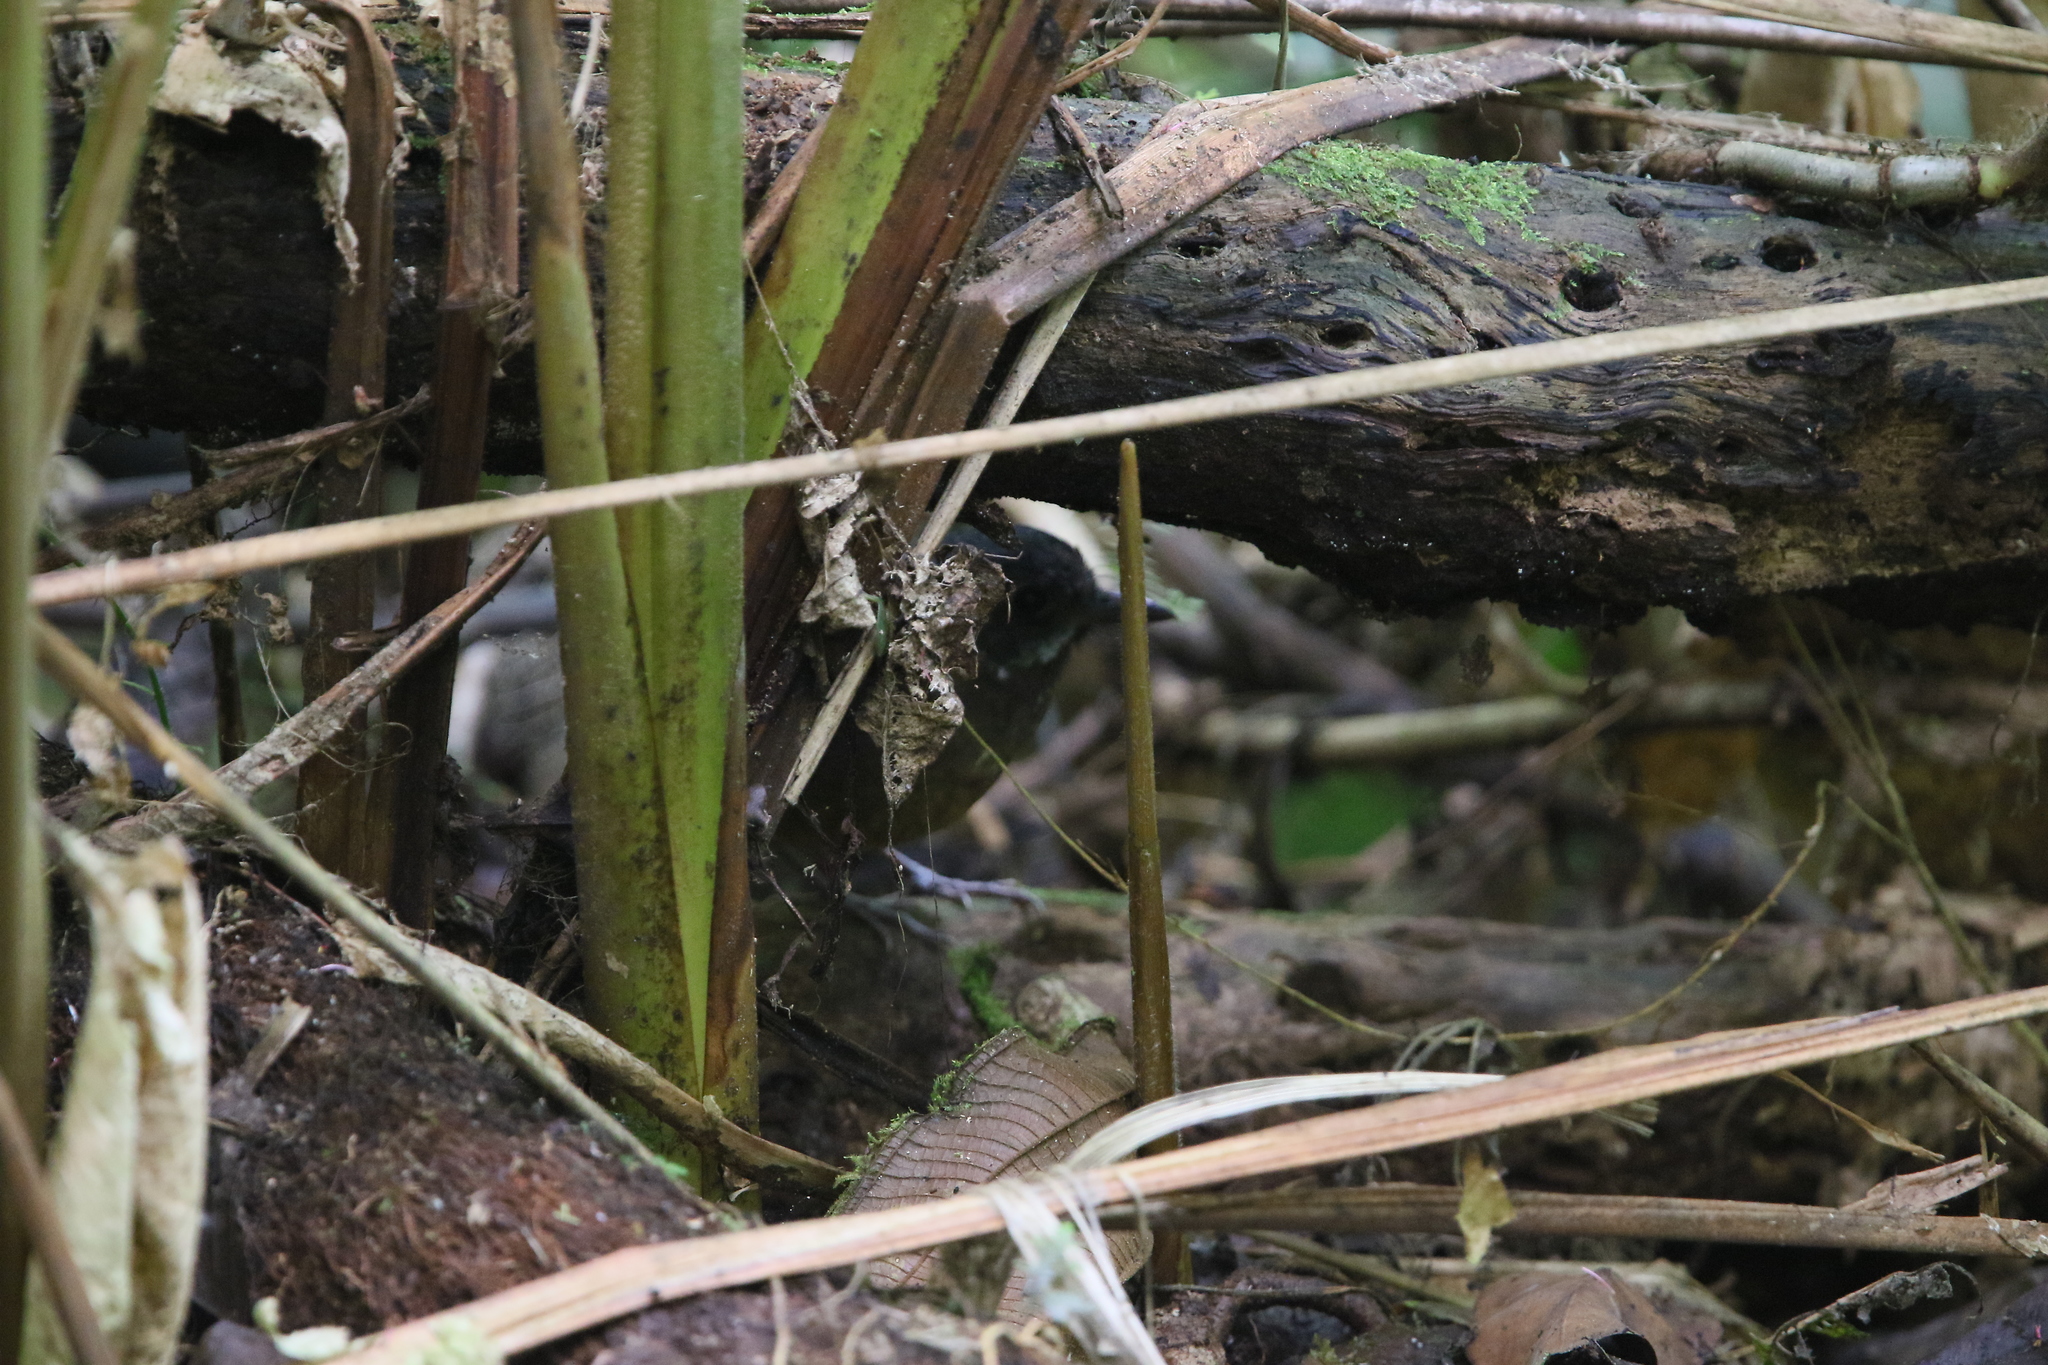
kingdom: Animalia
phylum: Chordata
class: Aves
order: Passeriformes
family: Grallariidae
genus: Grallaria
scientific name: Grallaria alleni
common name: Moustached antpitta
